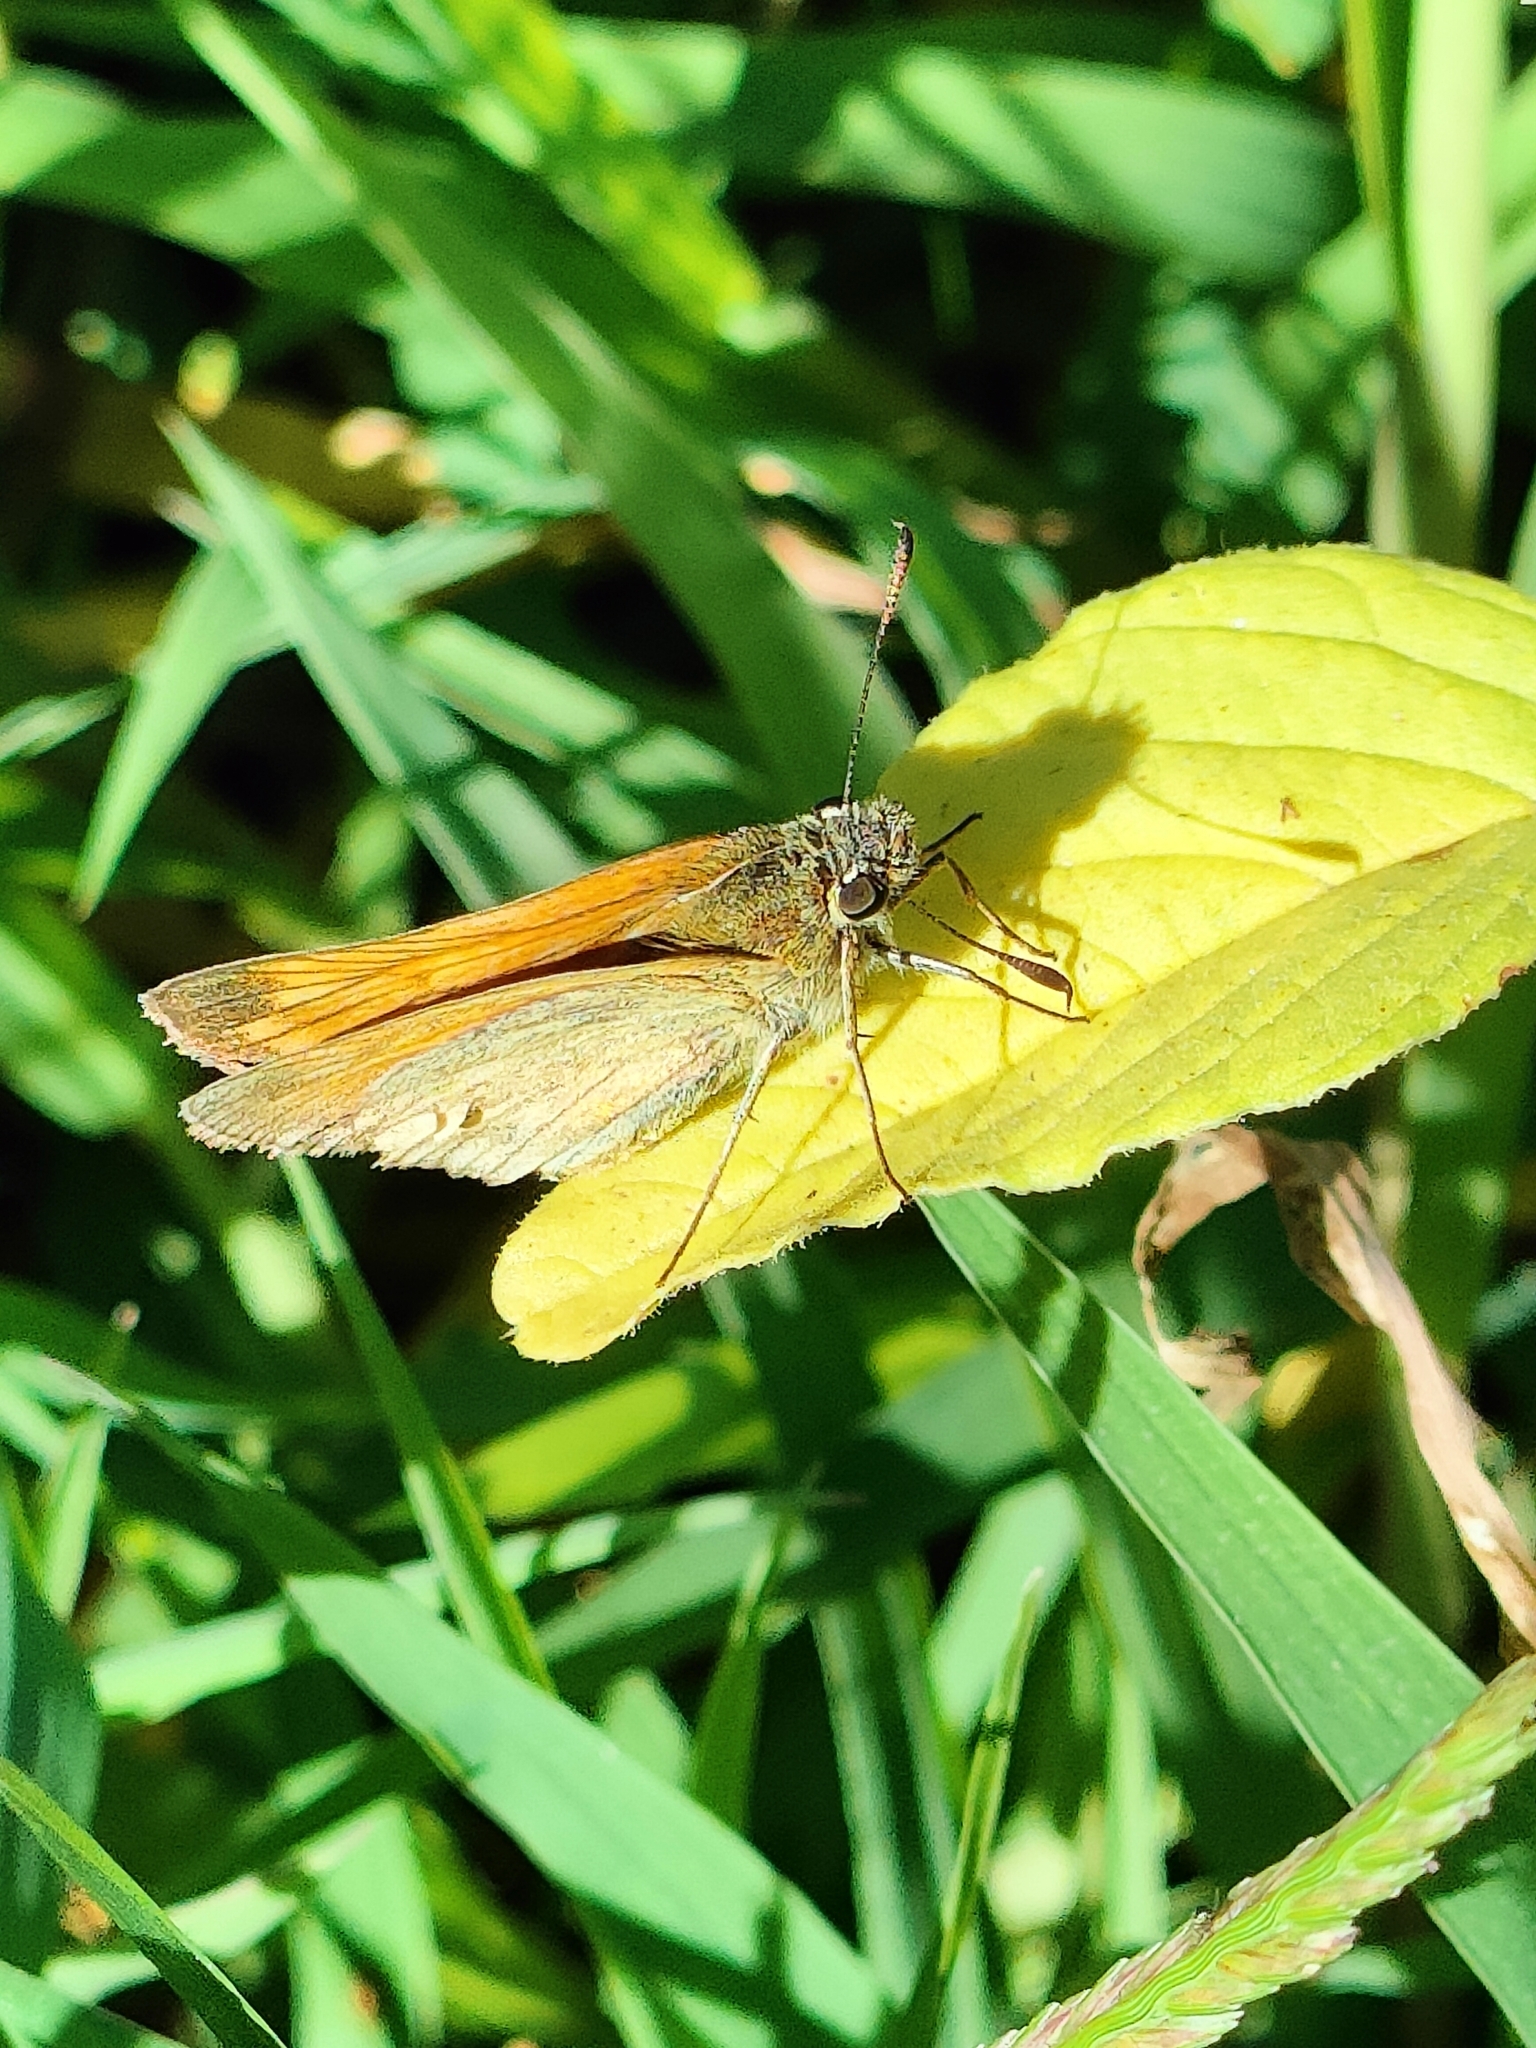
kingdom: Animalia
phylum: Arthropoda
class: Insecta
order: Lepidoptera
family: Hesperiidae
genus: Ochlodes
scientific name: Ochlodes venata
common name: Large skipper
